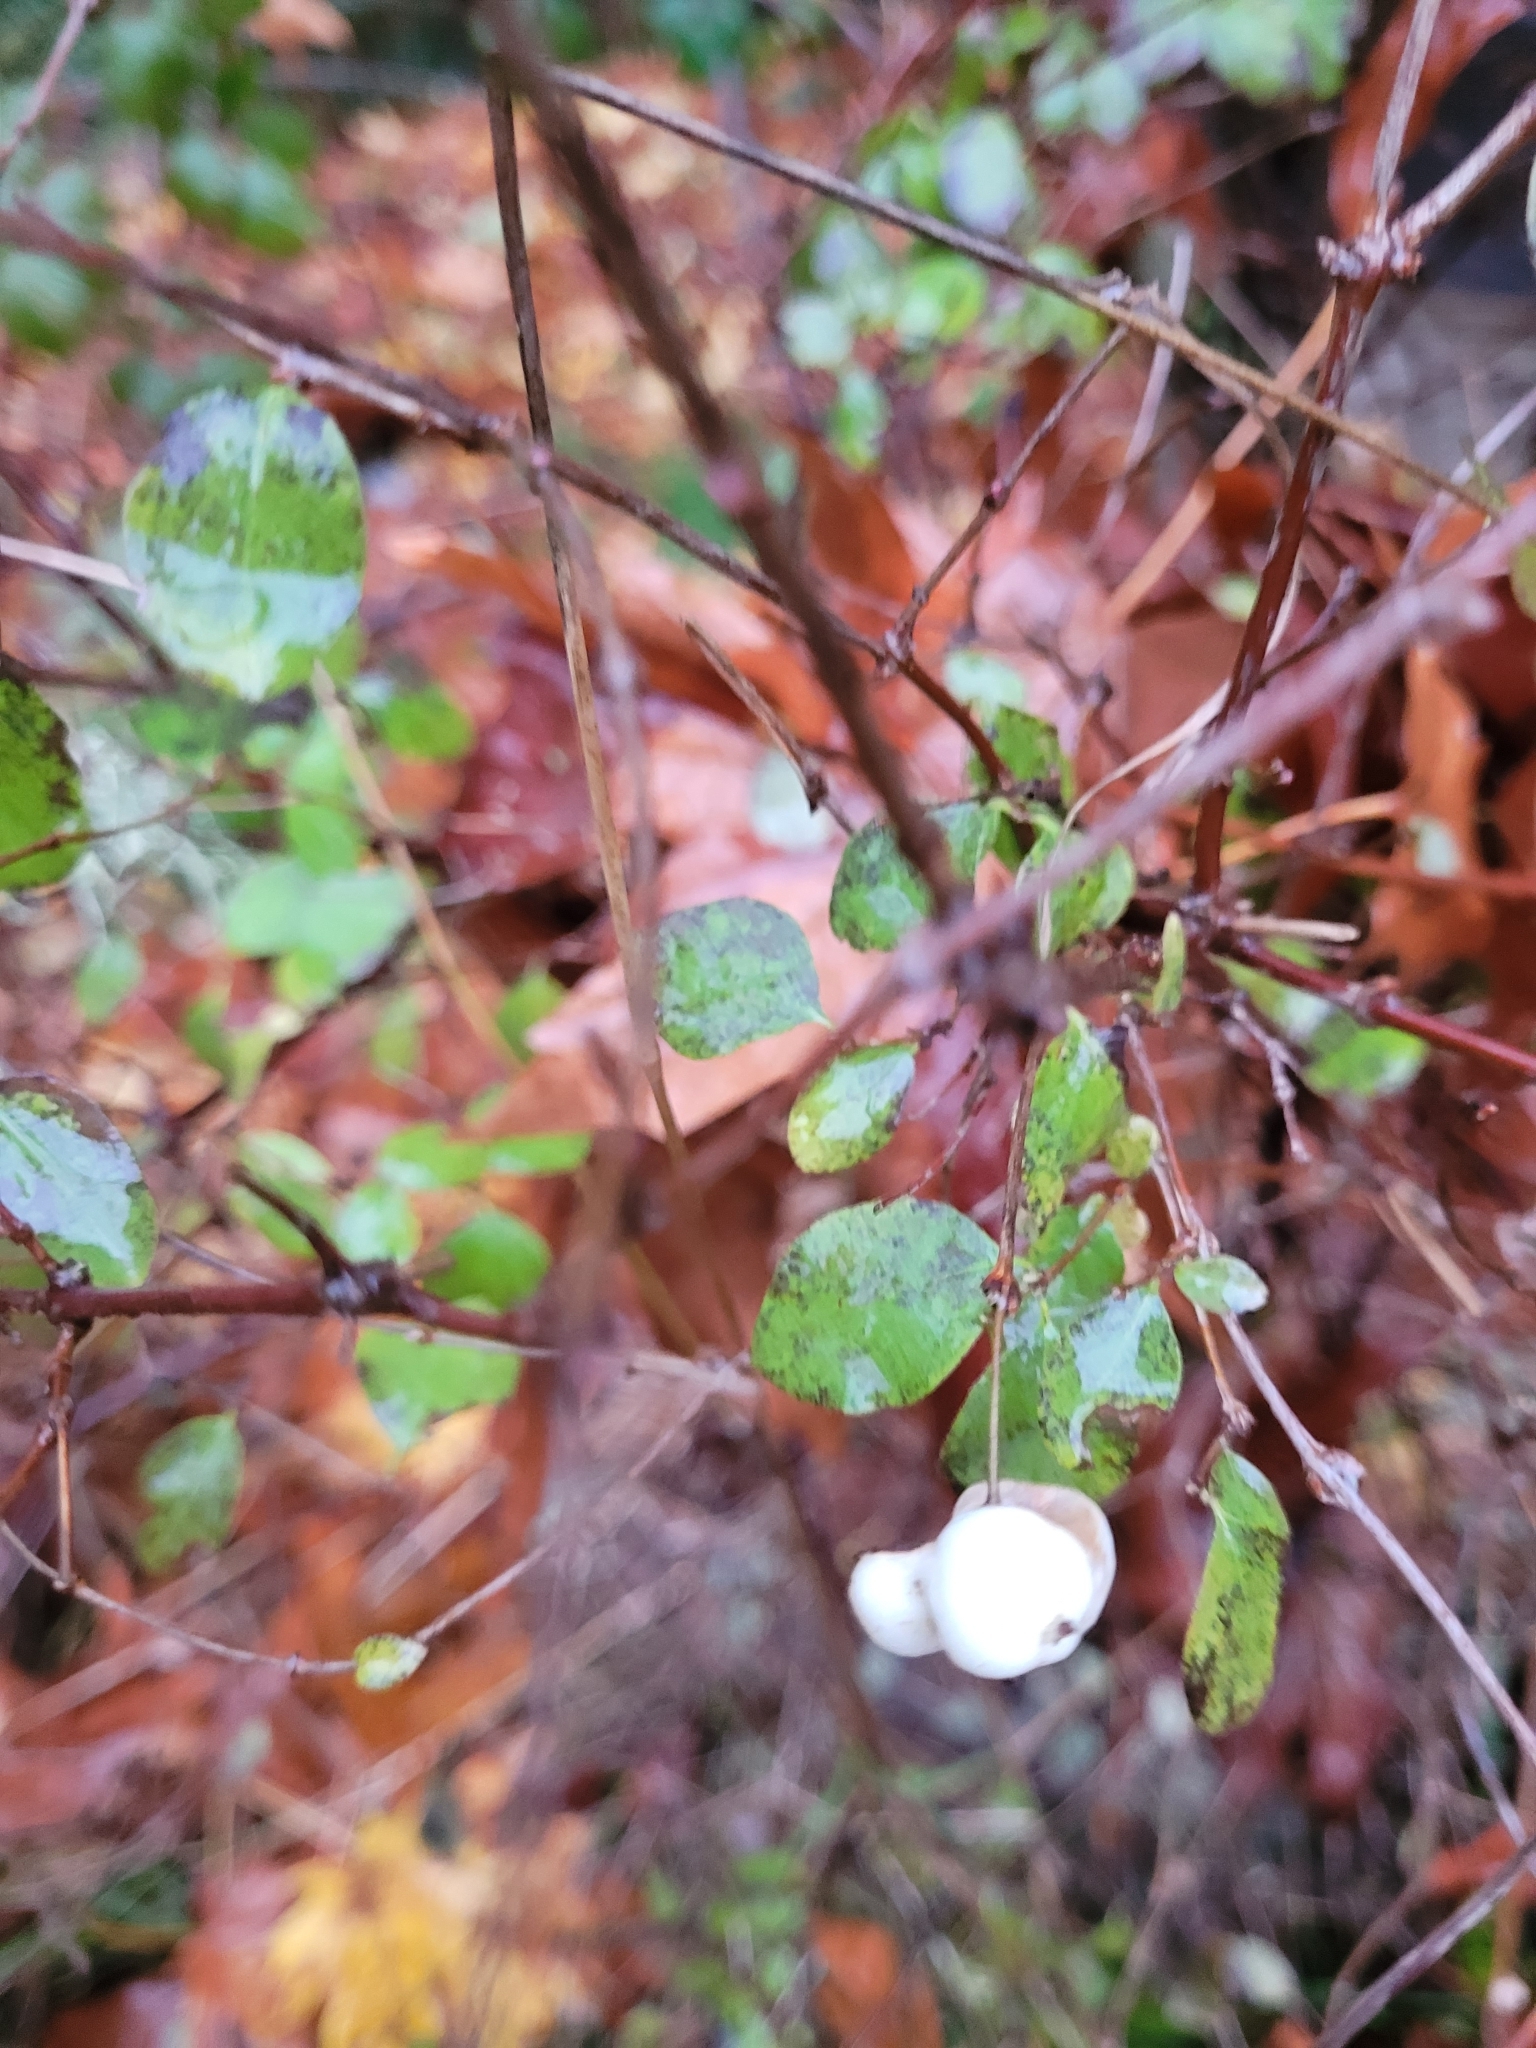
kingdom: Plantae
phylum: Tracheophyta
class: Magnoliopsida
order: Dipsacales
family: Caprifoliaceae
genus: Symphoricarpos
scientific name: Symphoricarpos albus
